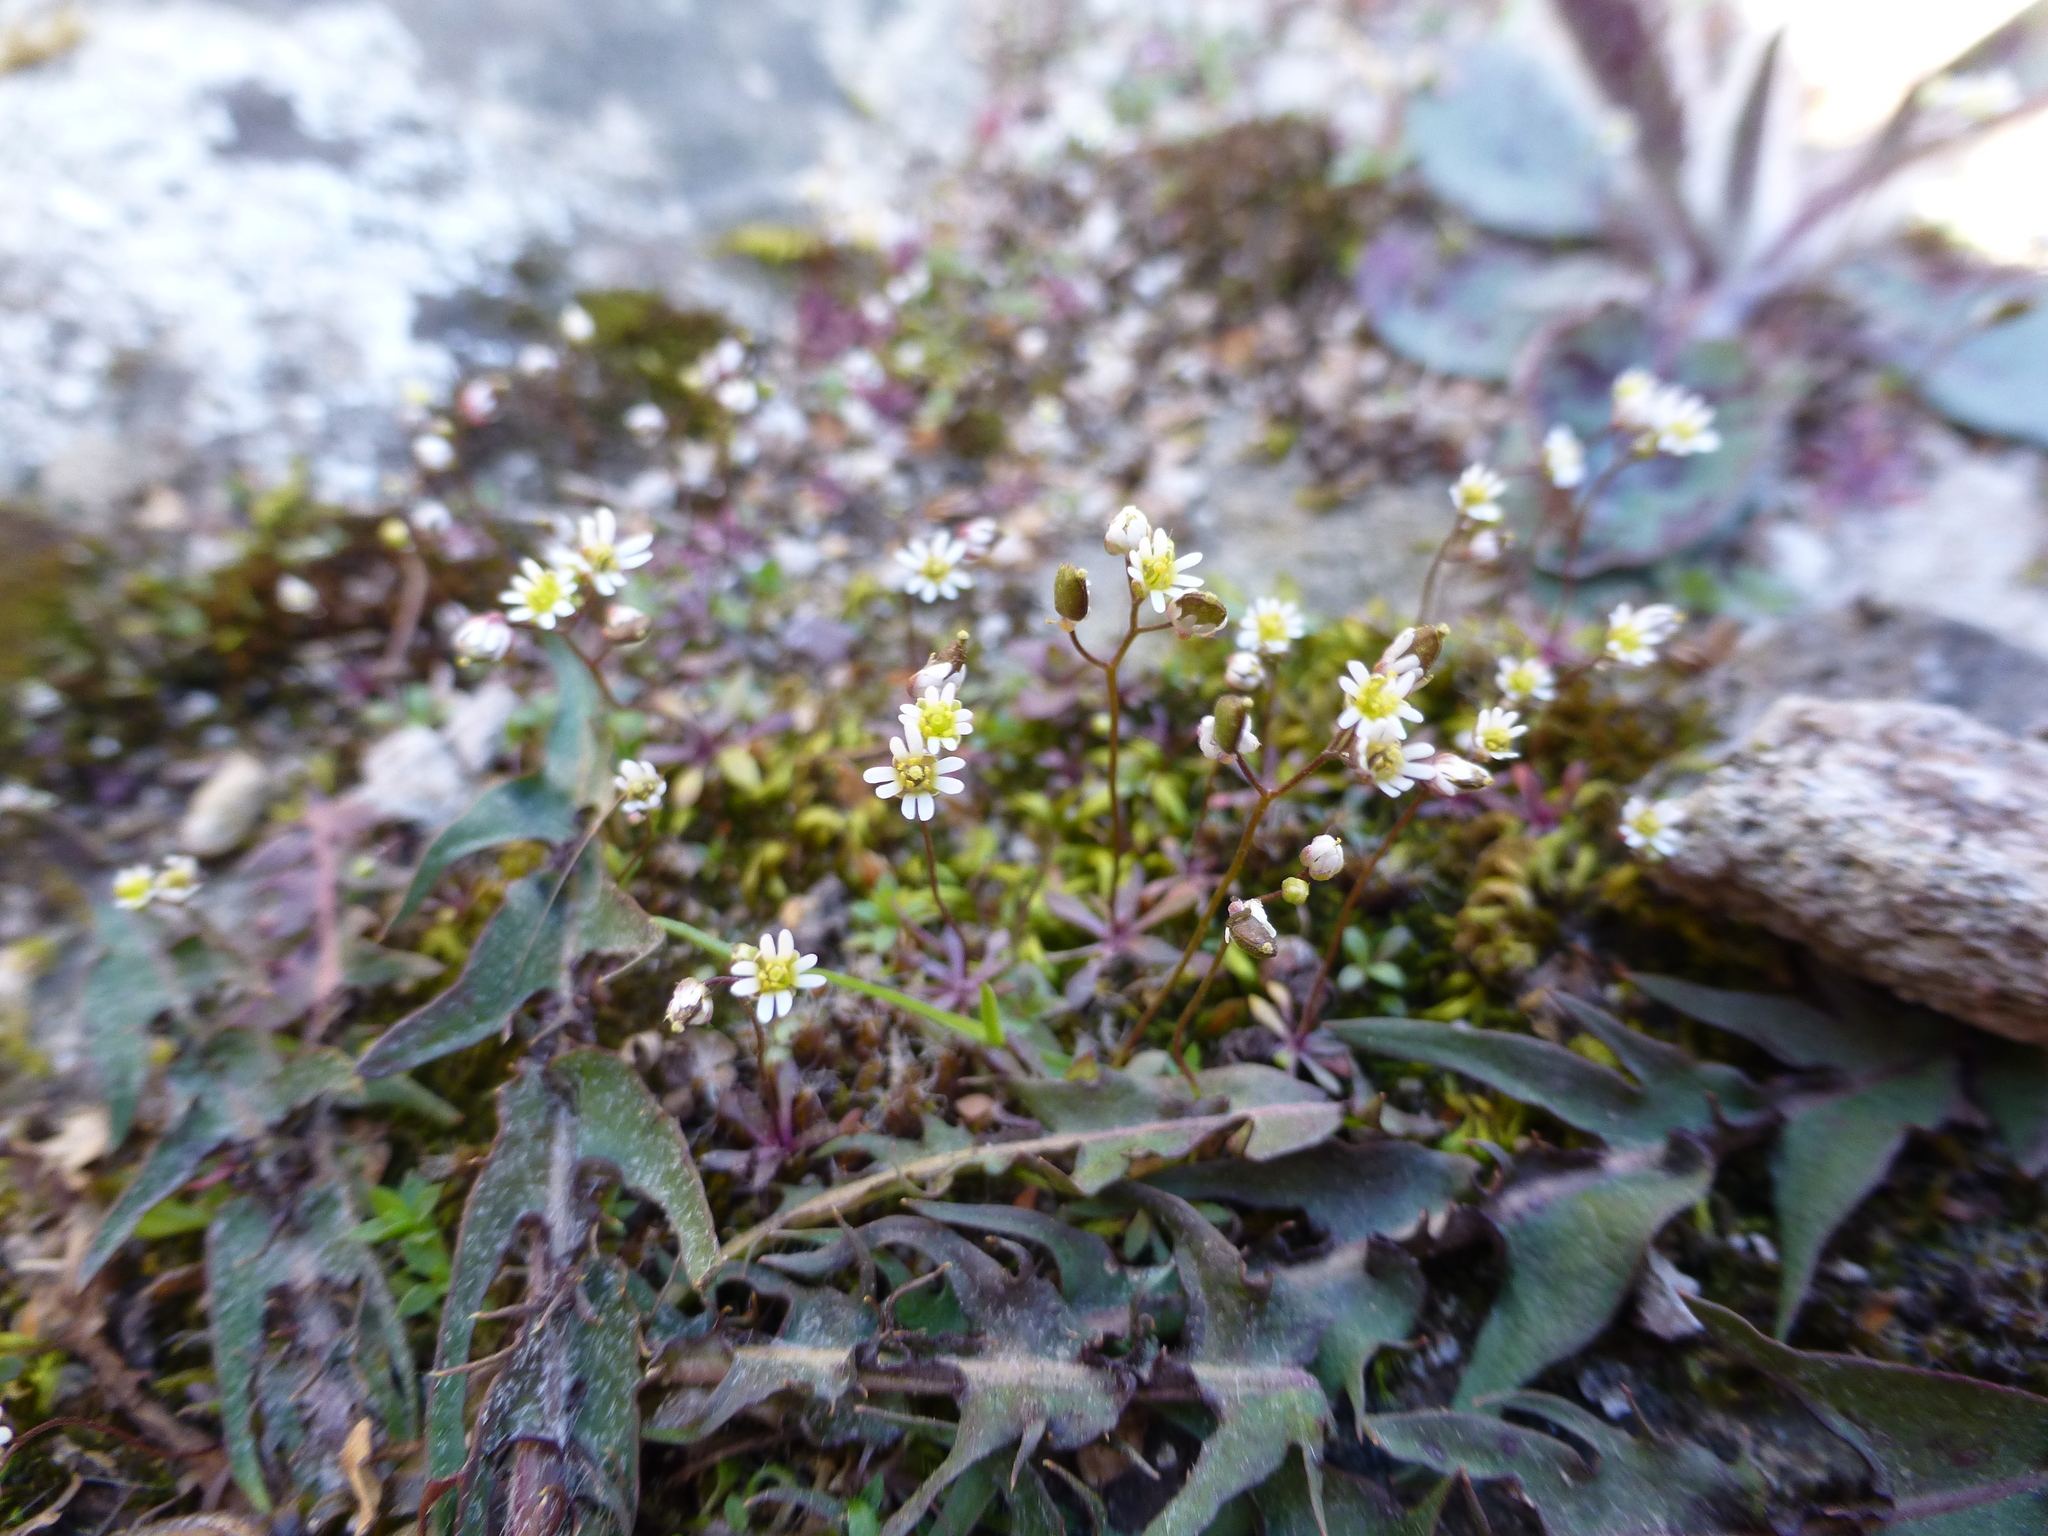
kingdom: Plantae
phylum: Tracheophyta
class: Magnoliopsida
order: Brassicales
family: Brassicaceae
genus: Draba
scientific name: Draba verna
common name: Spring draba
